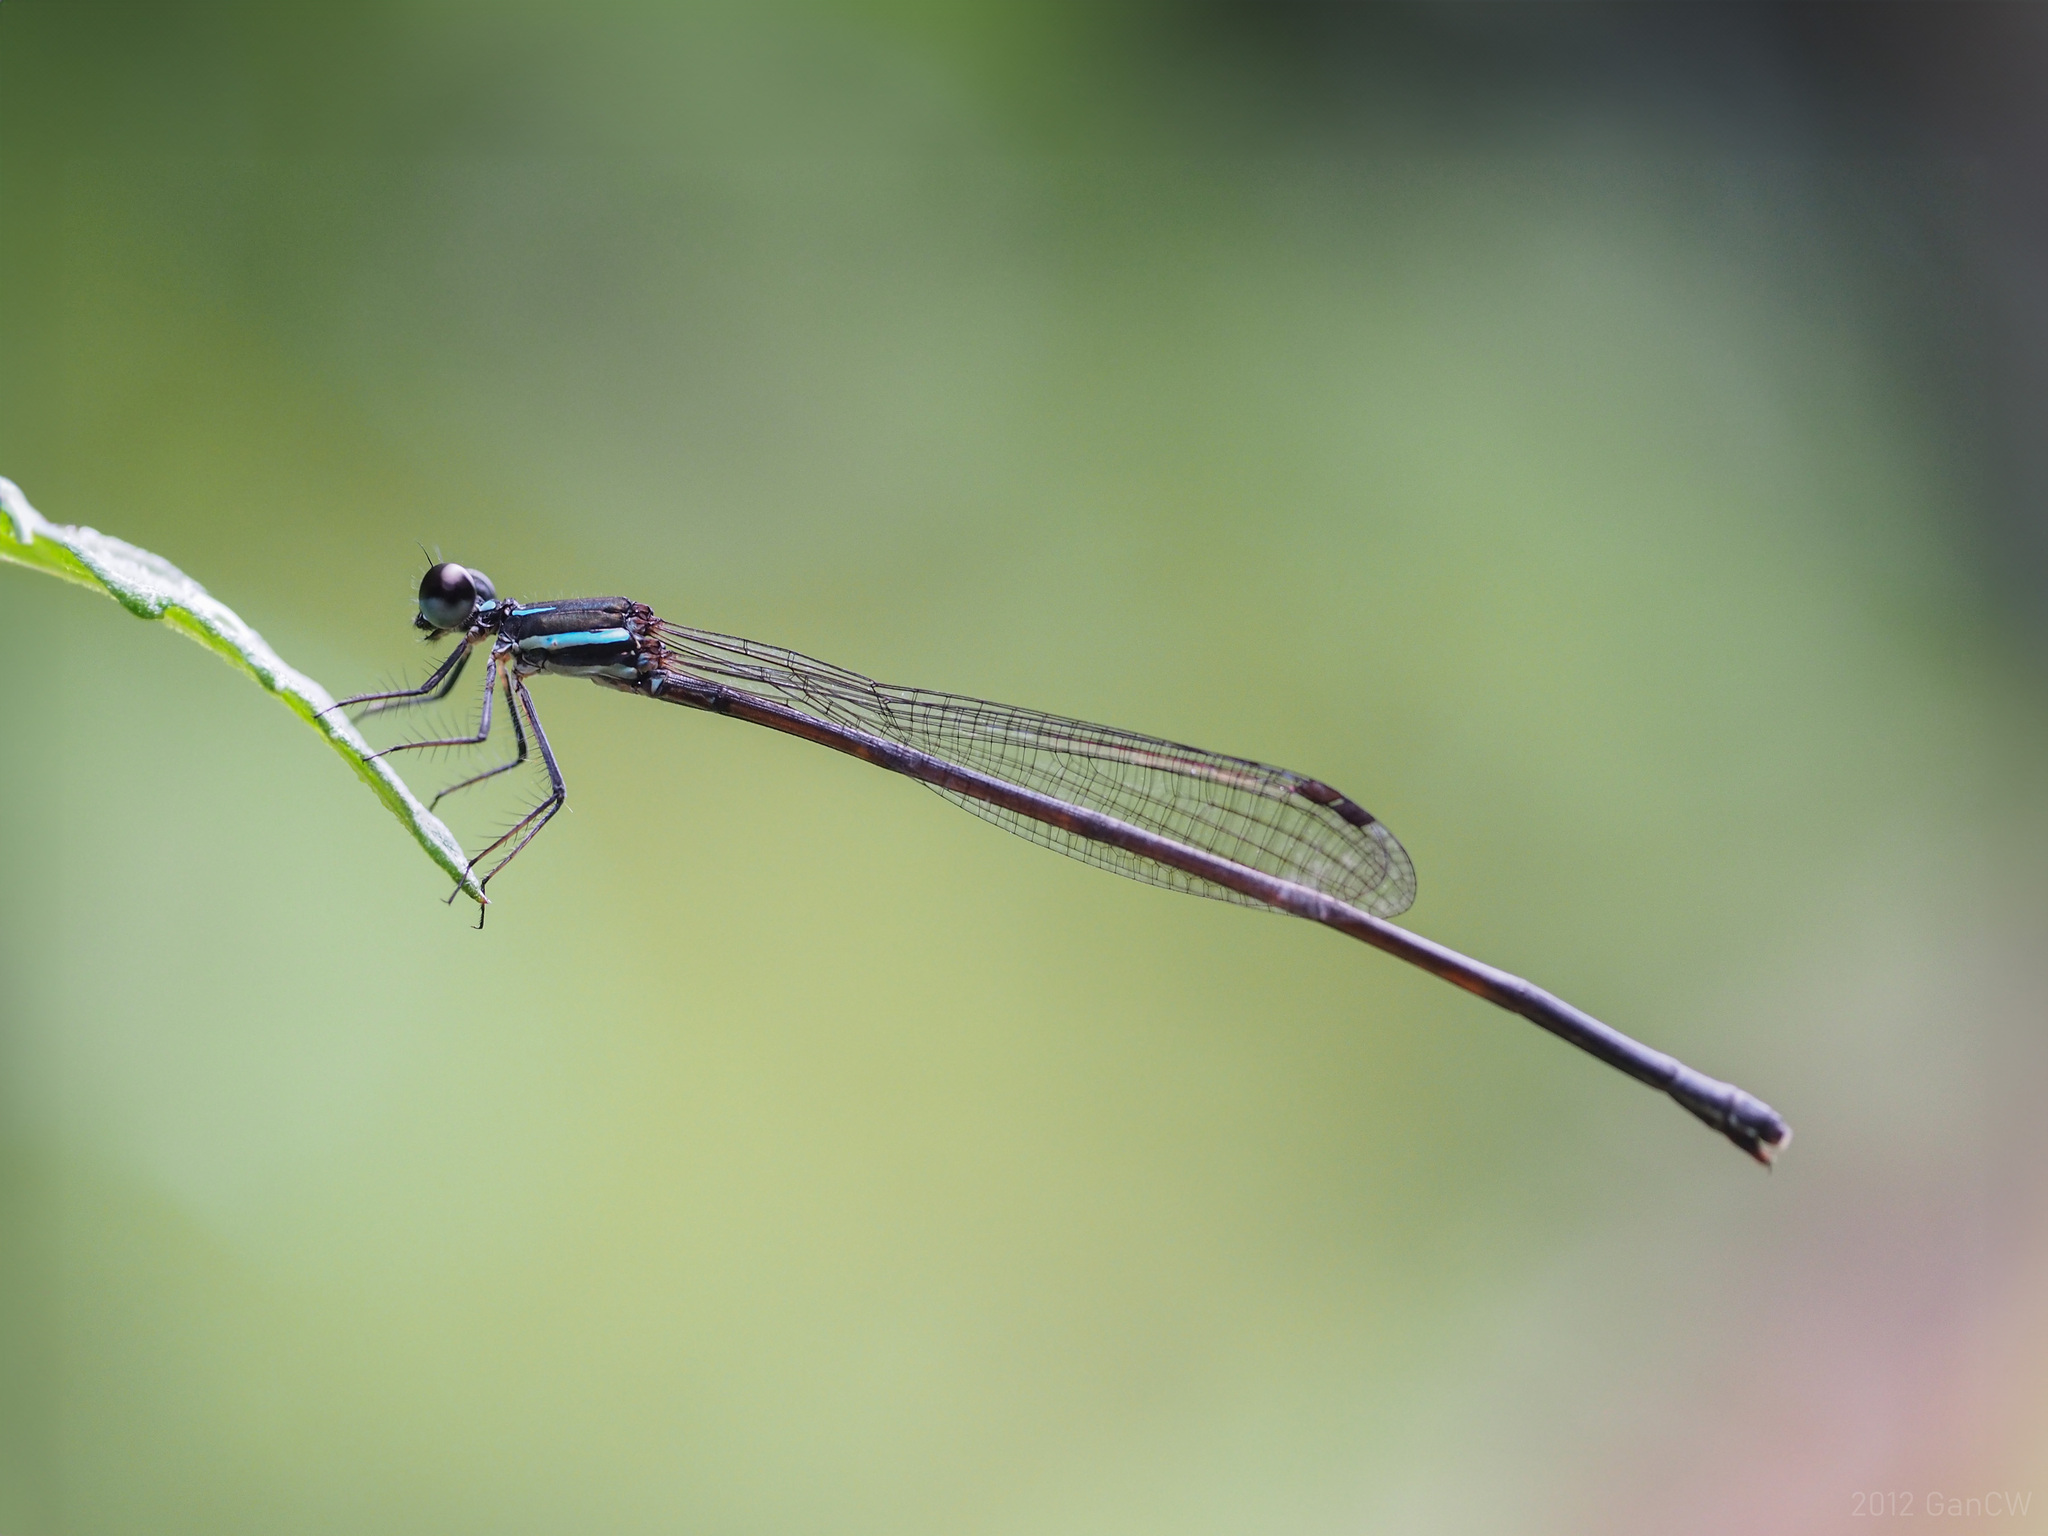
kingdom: Animalia
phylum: Arthropoda
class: Insecta
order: Odonata
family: Platycnemididae
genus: Prodasineura
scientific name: Prodasineura collaris
